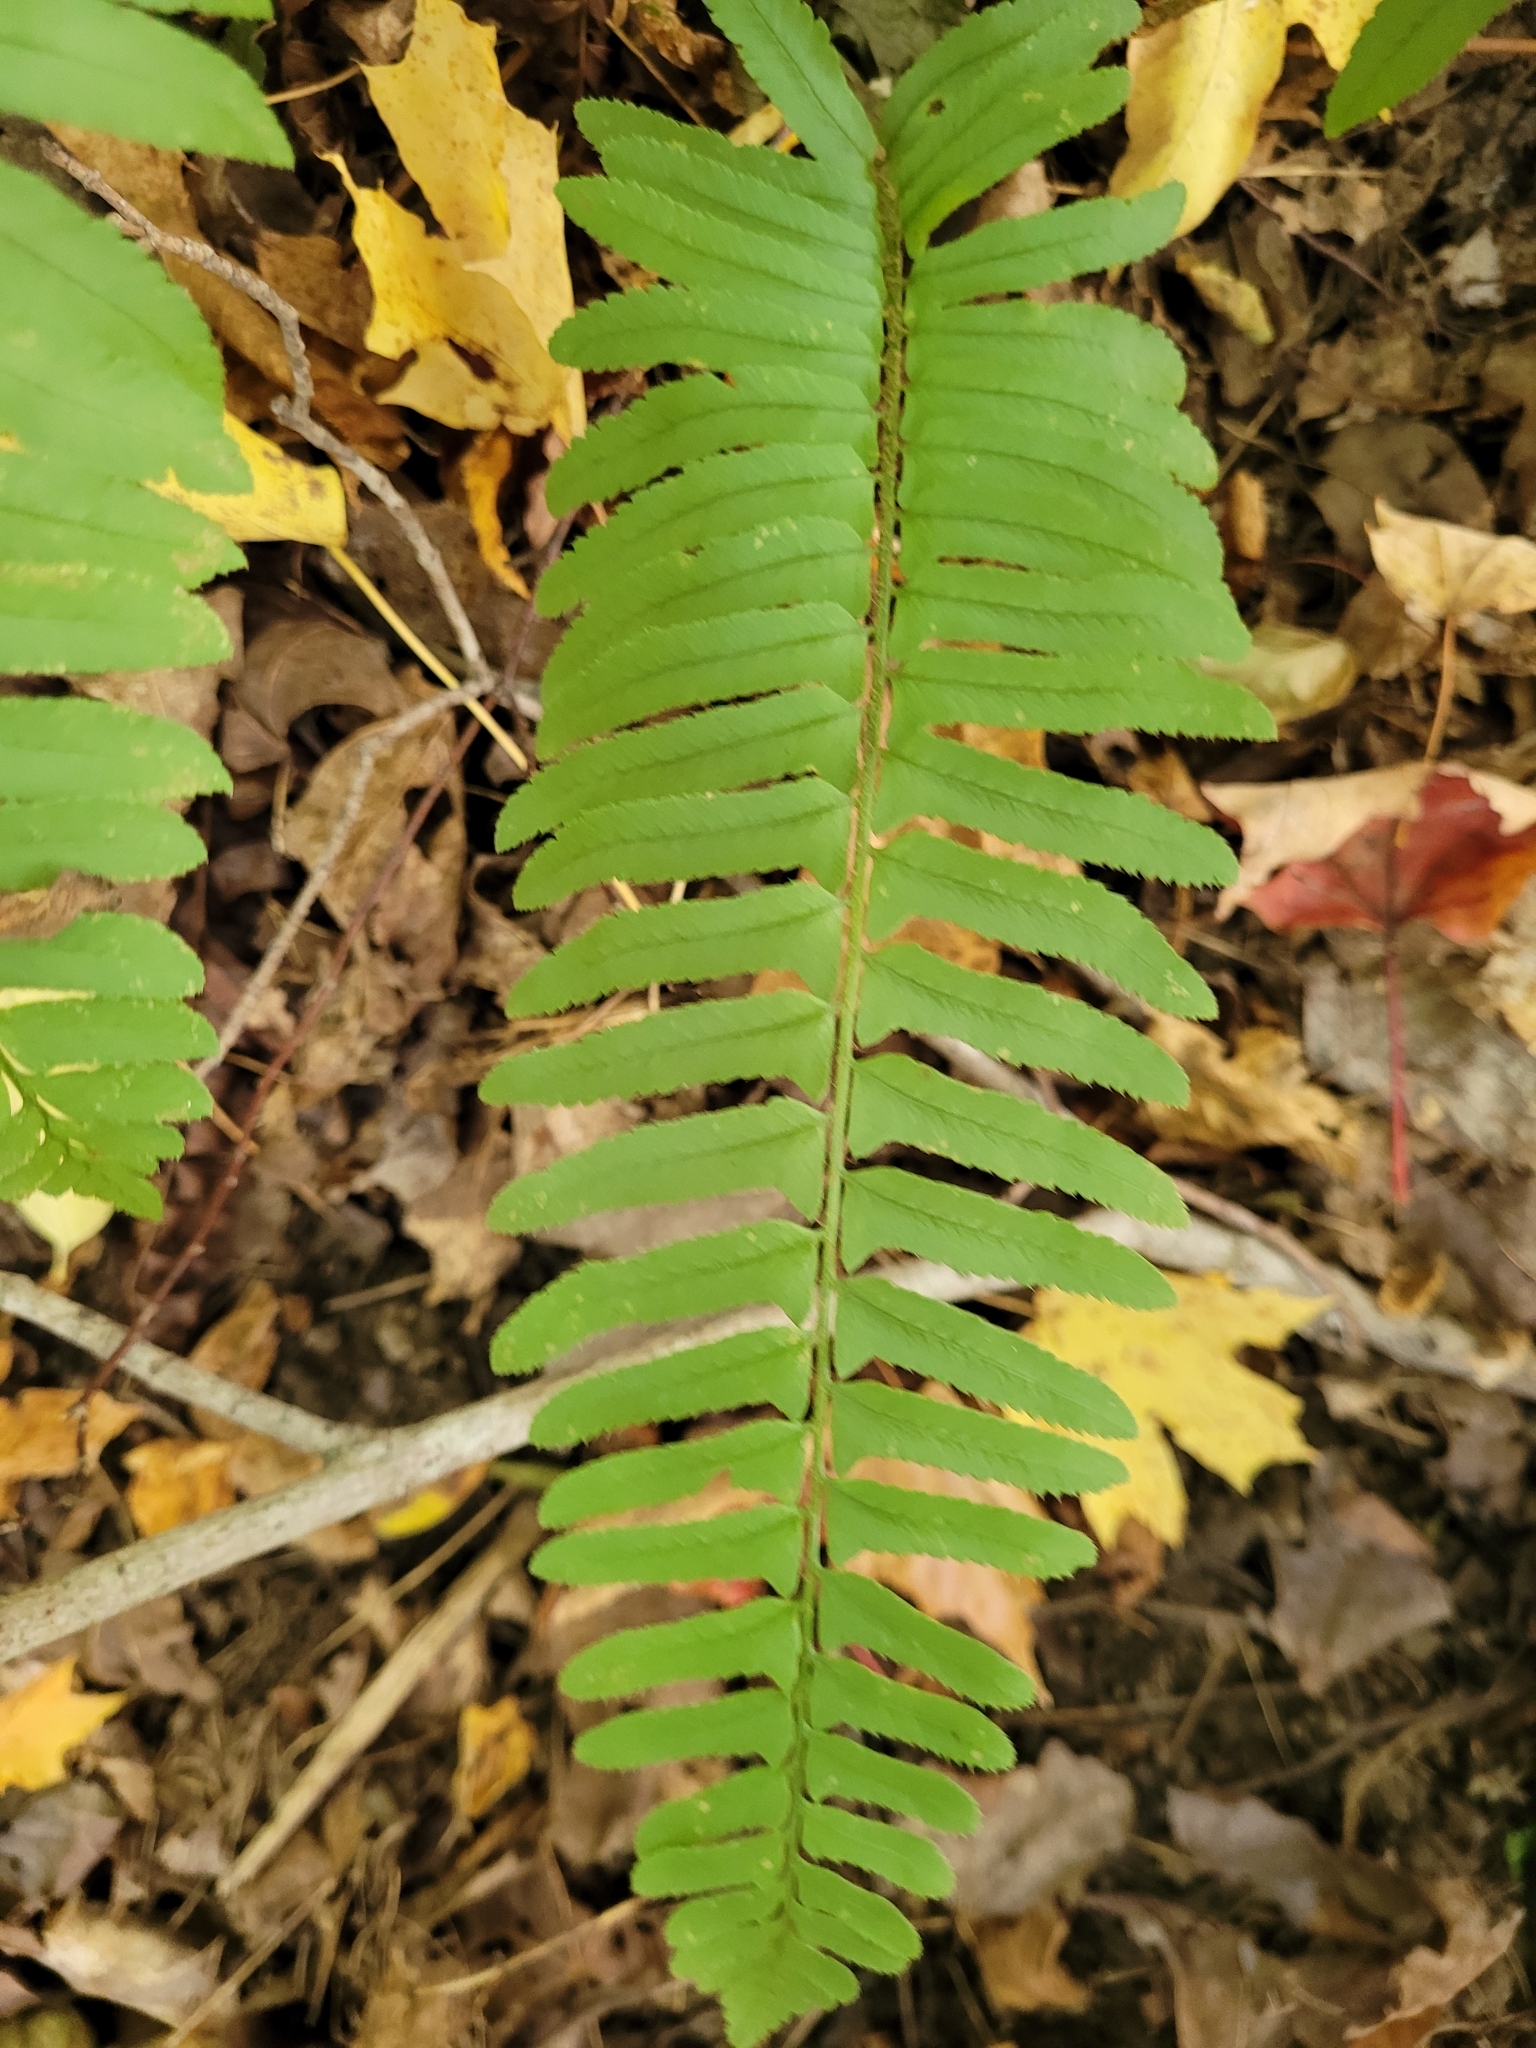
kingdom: Plantae
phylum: Tracheophyta
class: Polypodiopsida
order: Polypodiales
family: Dryopteridaceae
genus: Polystichum
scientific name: Polystichum acrostichoides
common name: Christmas fern
